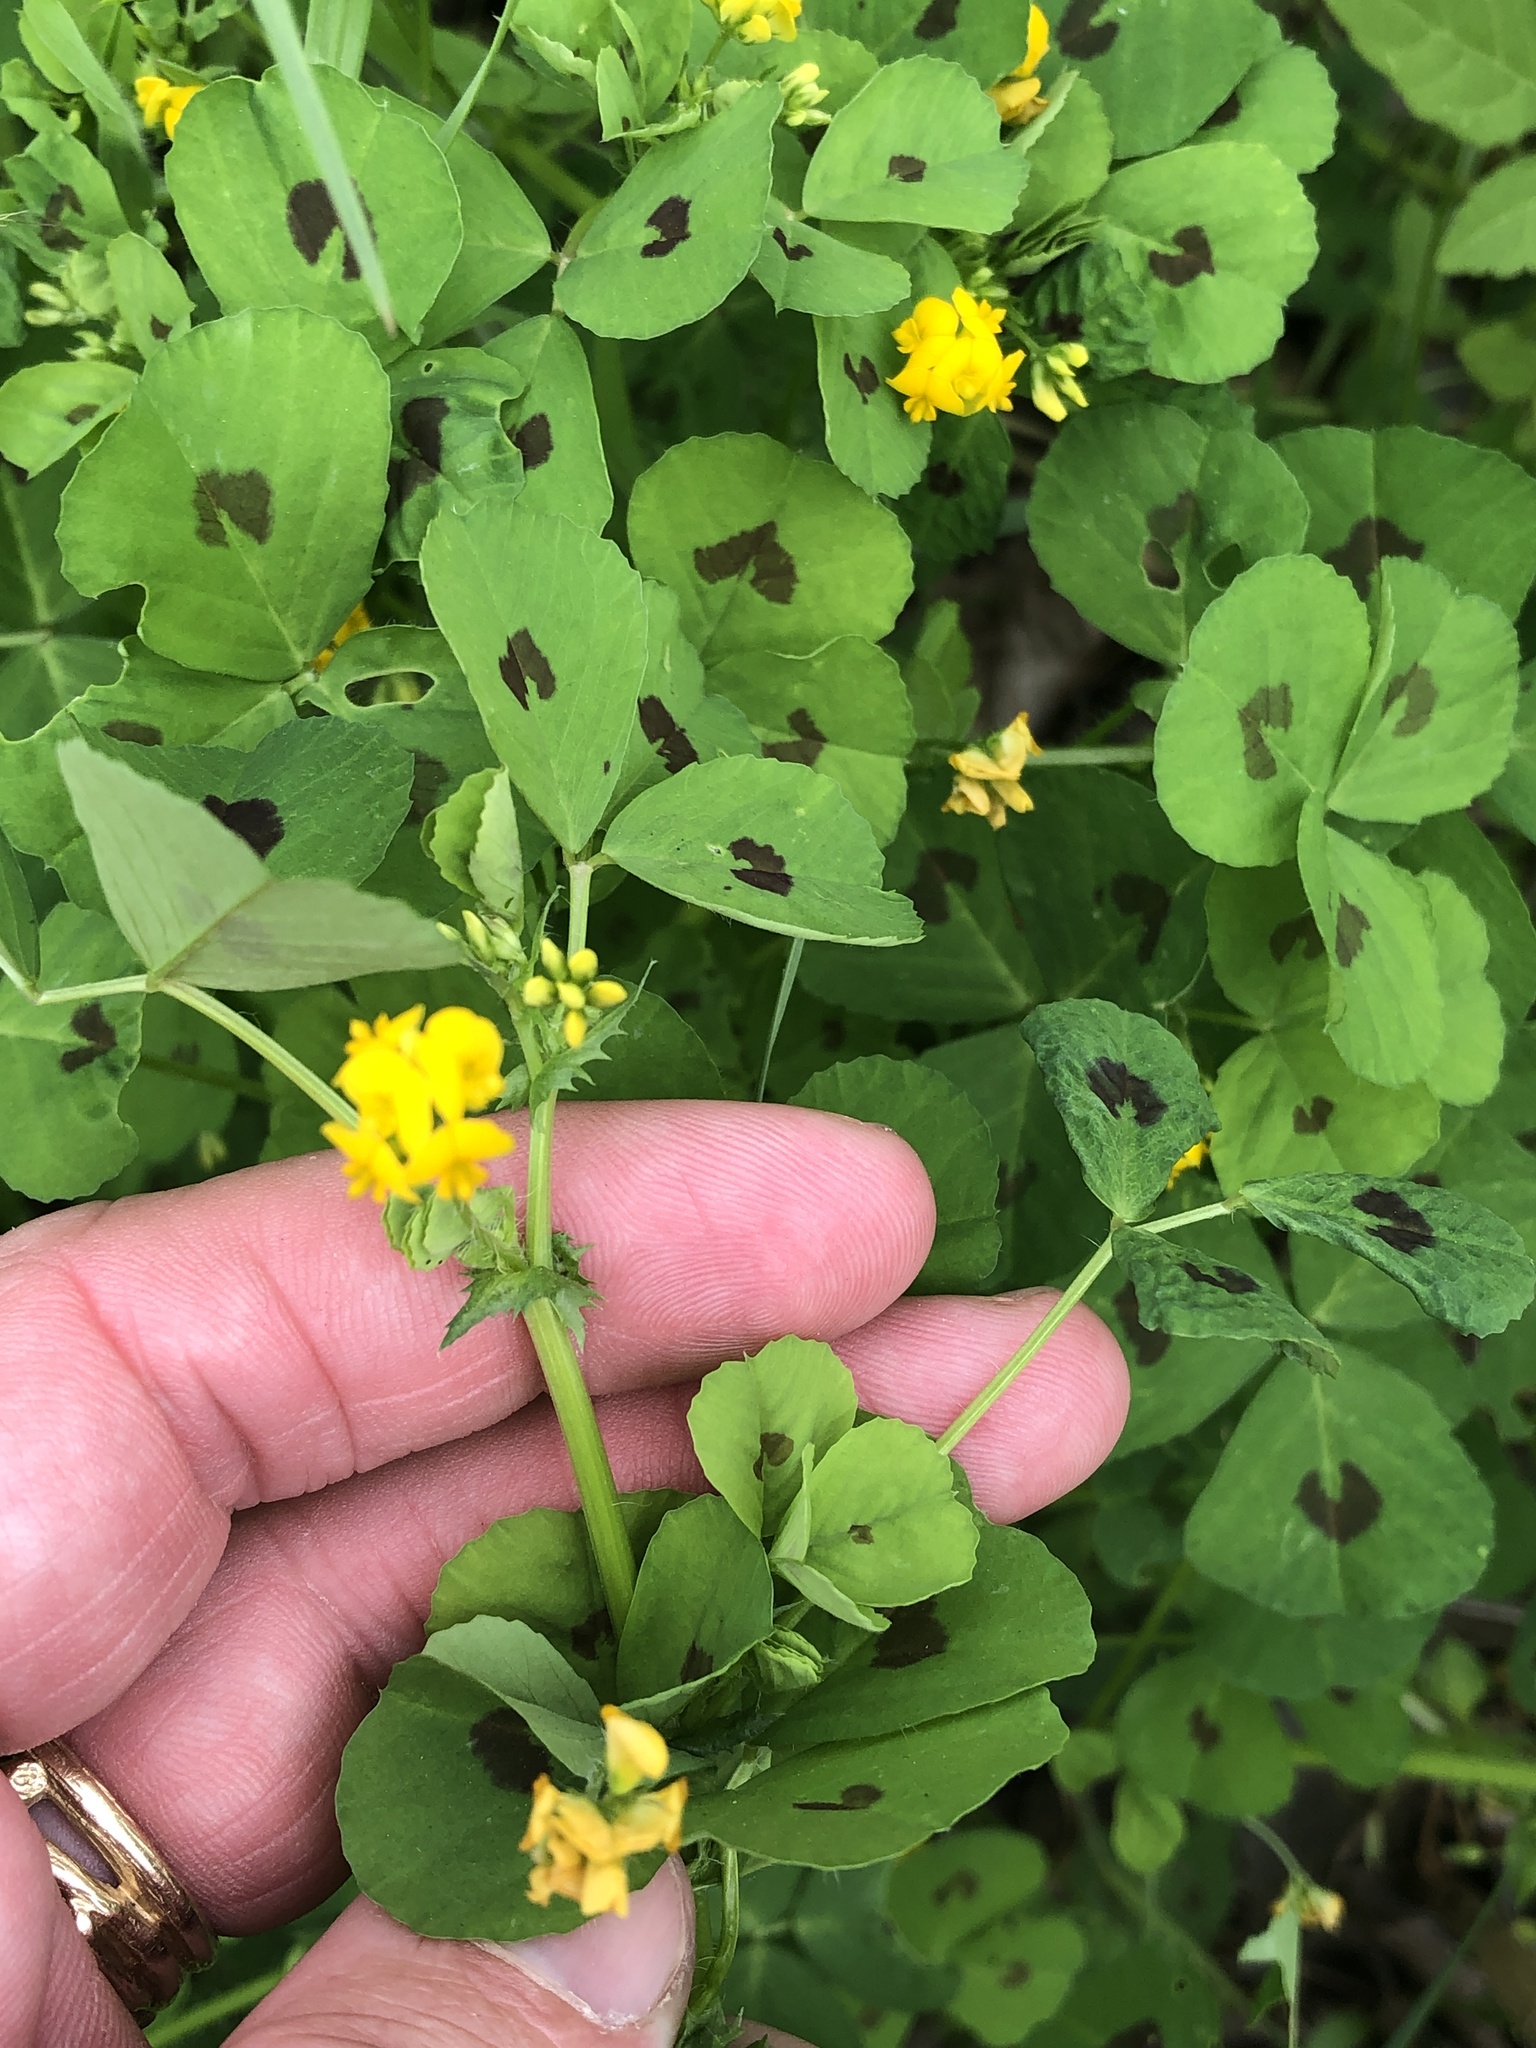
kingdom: Plantae
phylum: Tracheophyta
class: Magnoliopsida
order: Fabales
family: Fabaceae
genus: Medicago
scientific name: Medicago arabica
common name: Spotted medick
